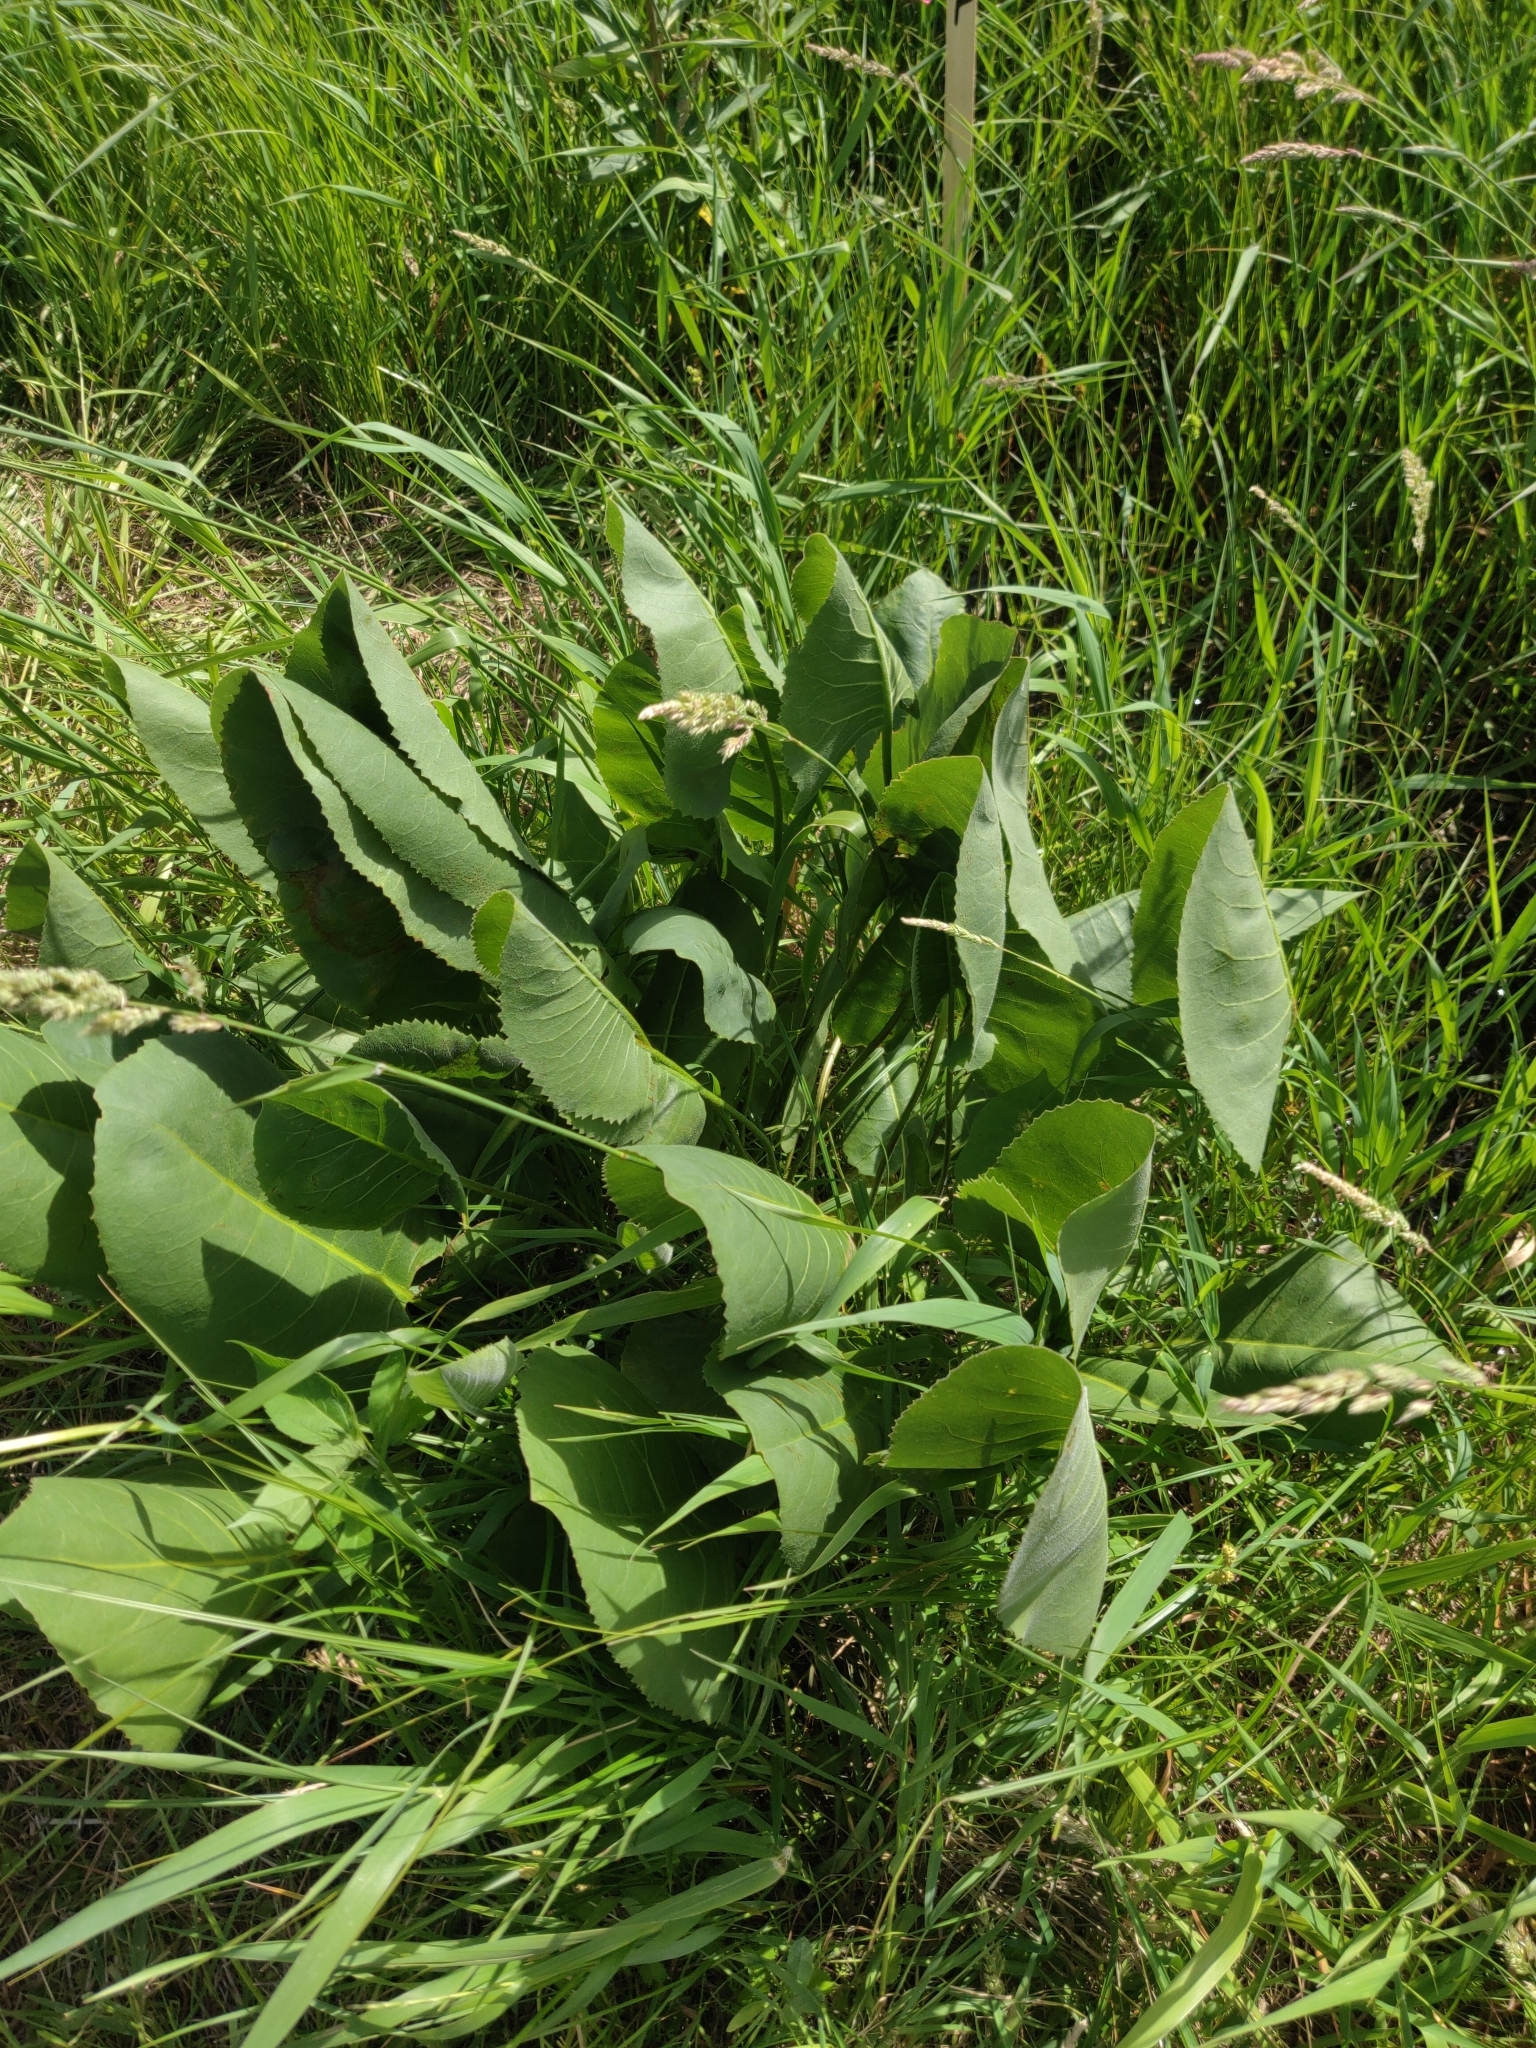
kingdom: Plantae
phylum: Tracheophyta
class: Magnoliopsida
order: Asterales
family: Asteraceae
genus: Silphium
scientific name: Silphium terebinthinaceum
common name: Basal-leaf rosinweed
